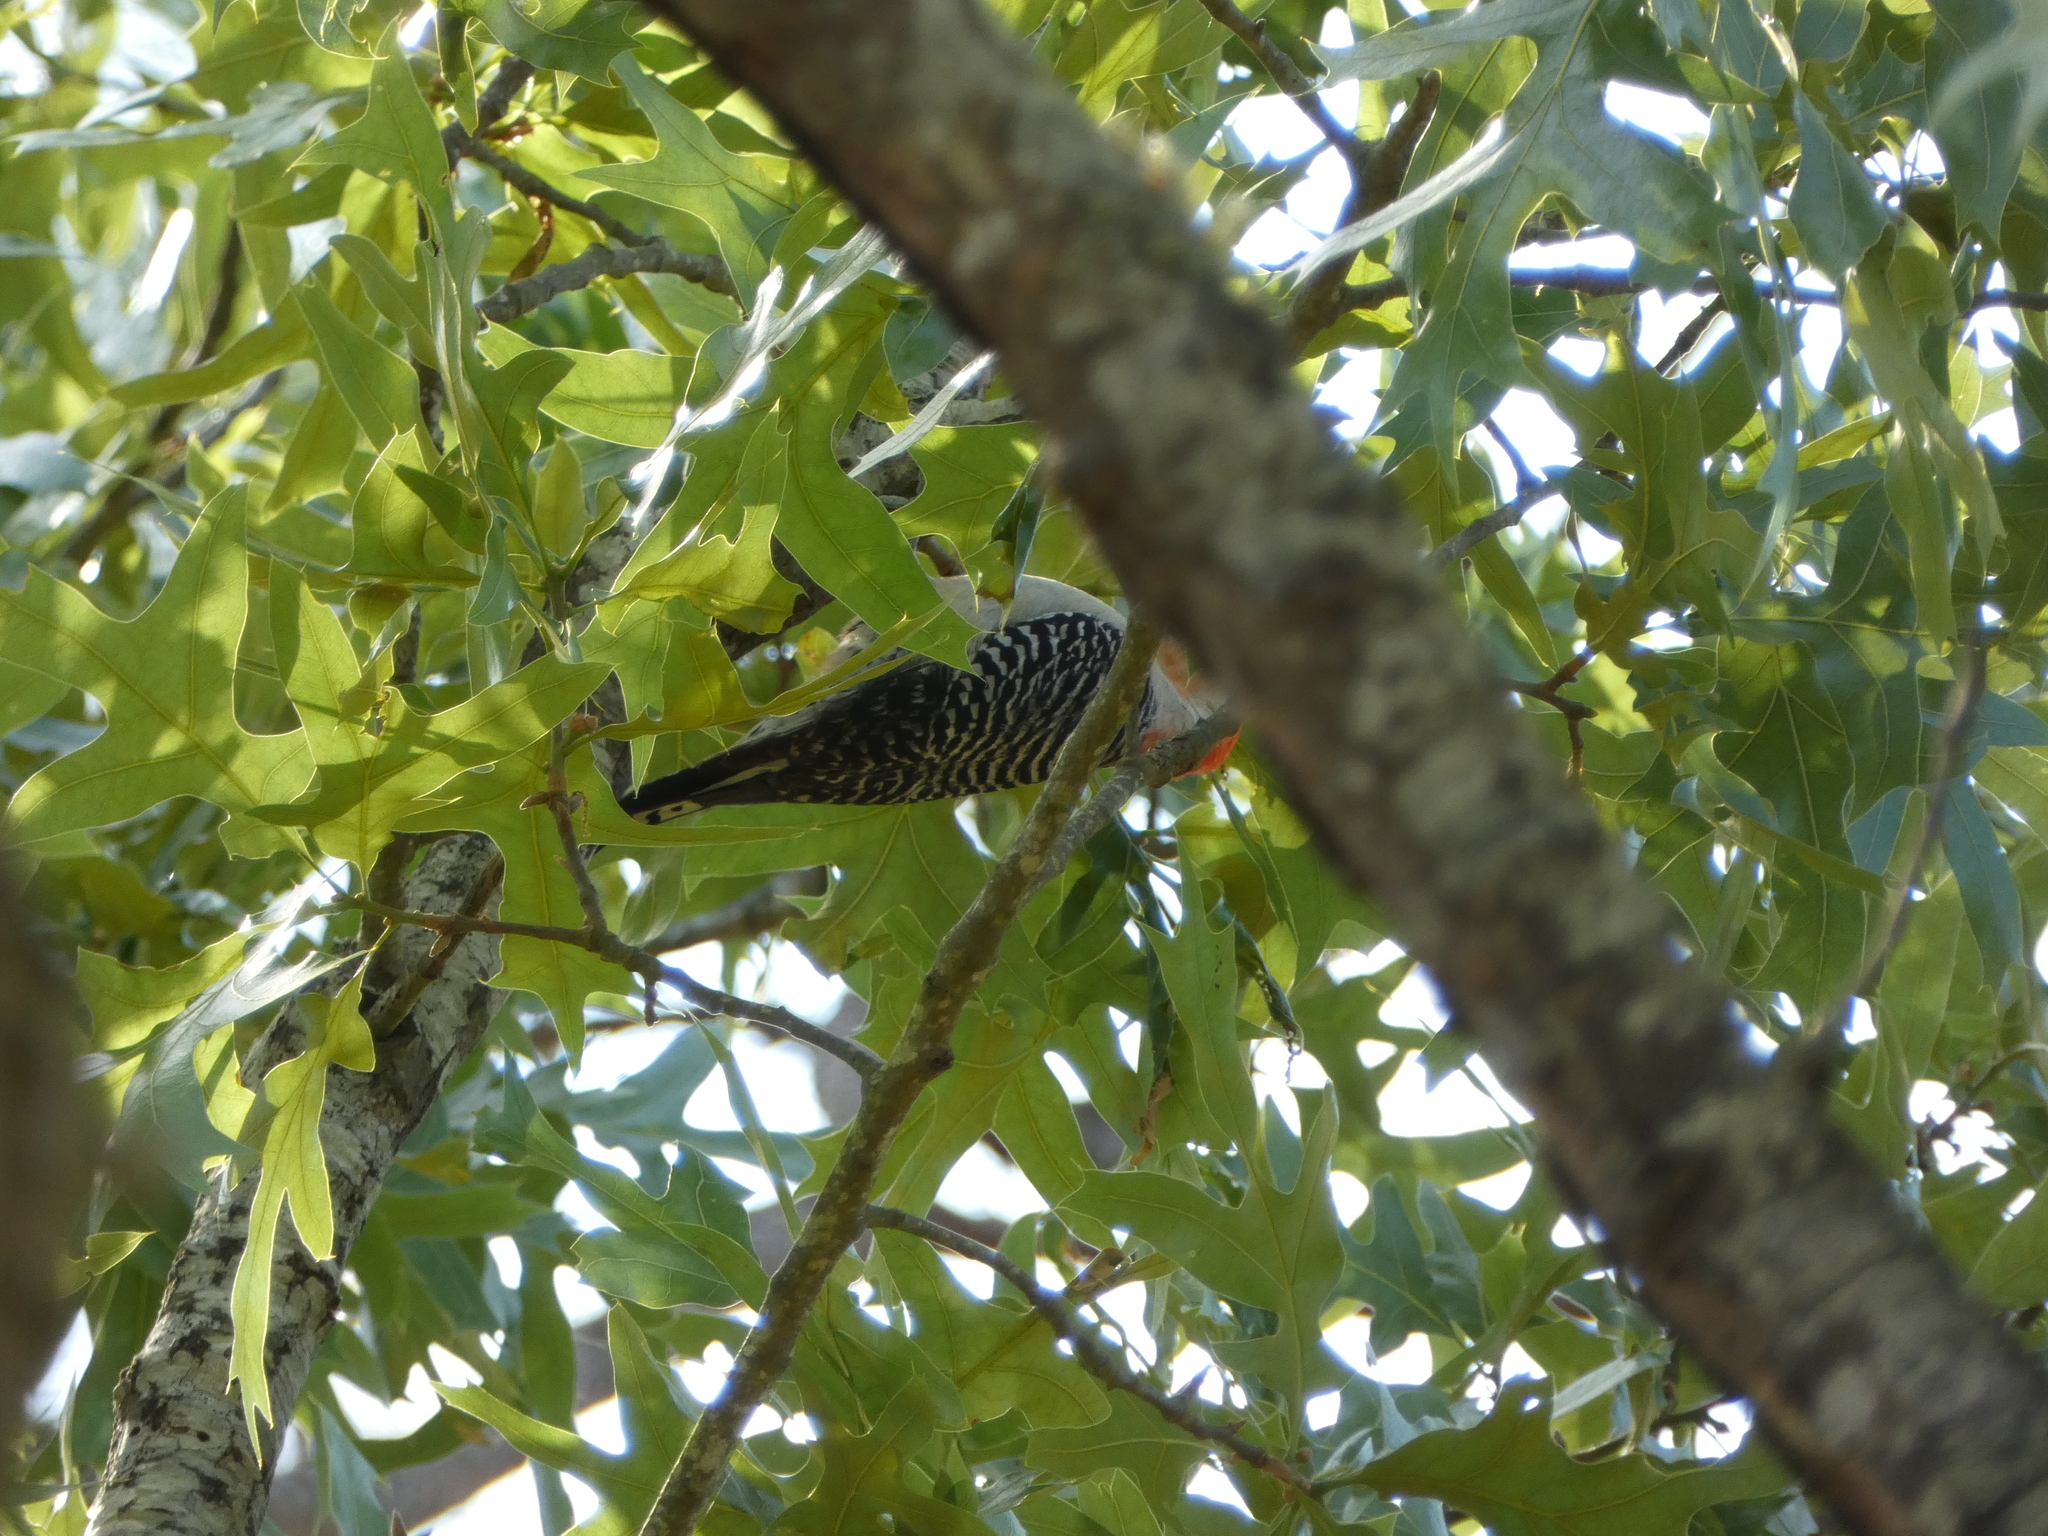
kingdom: Animalia
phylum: Chordata
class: Aves
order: Piciformes
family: Picidae
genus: Melanerpes
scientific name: Melanerpes carolinus
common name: Red-bellied woodpecker
